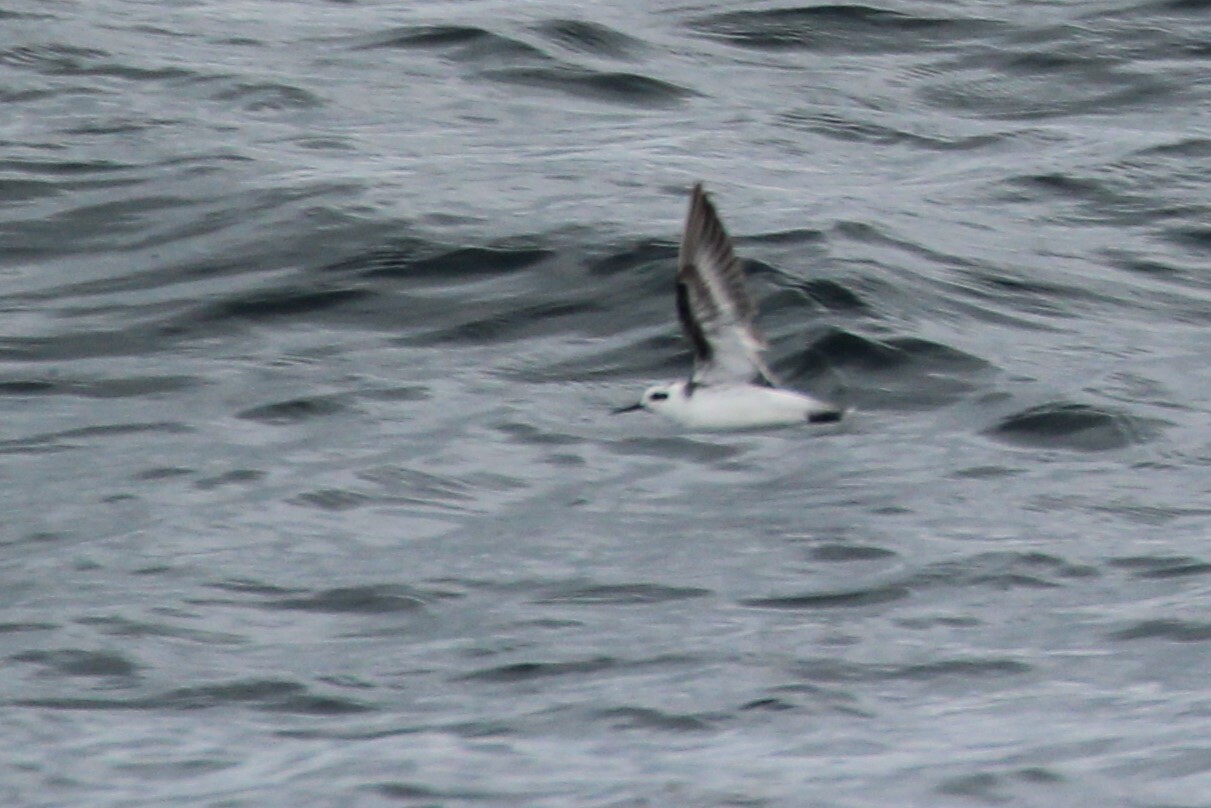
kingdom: Animalia
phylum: Chordata
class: Aves
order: Charadriiformes
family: Scolopacidae
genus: Phalaropus
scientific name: Phalaropus lobatus
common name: Red-necked phalarope
